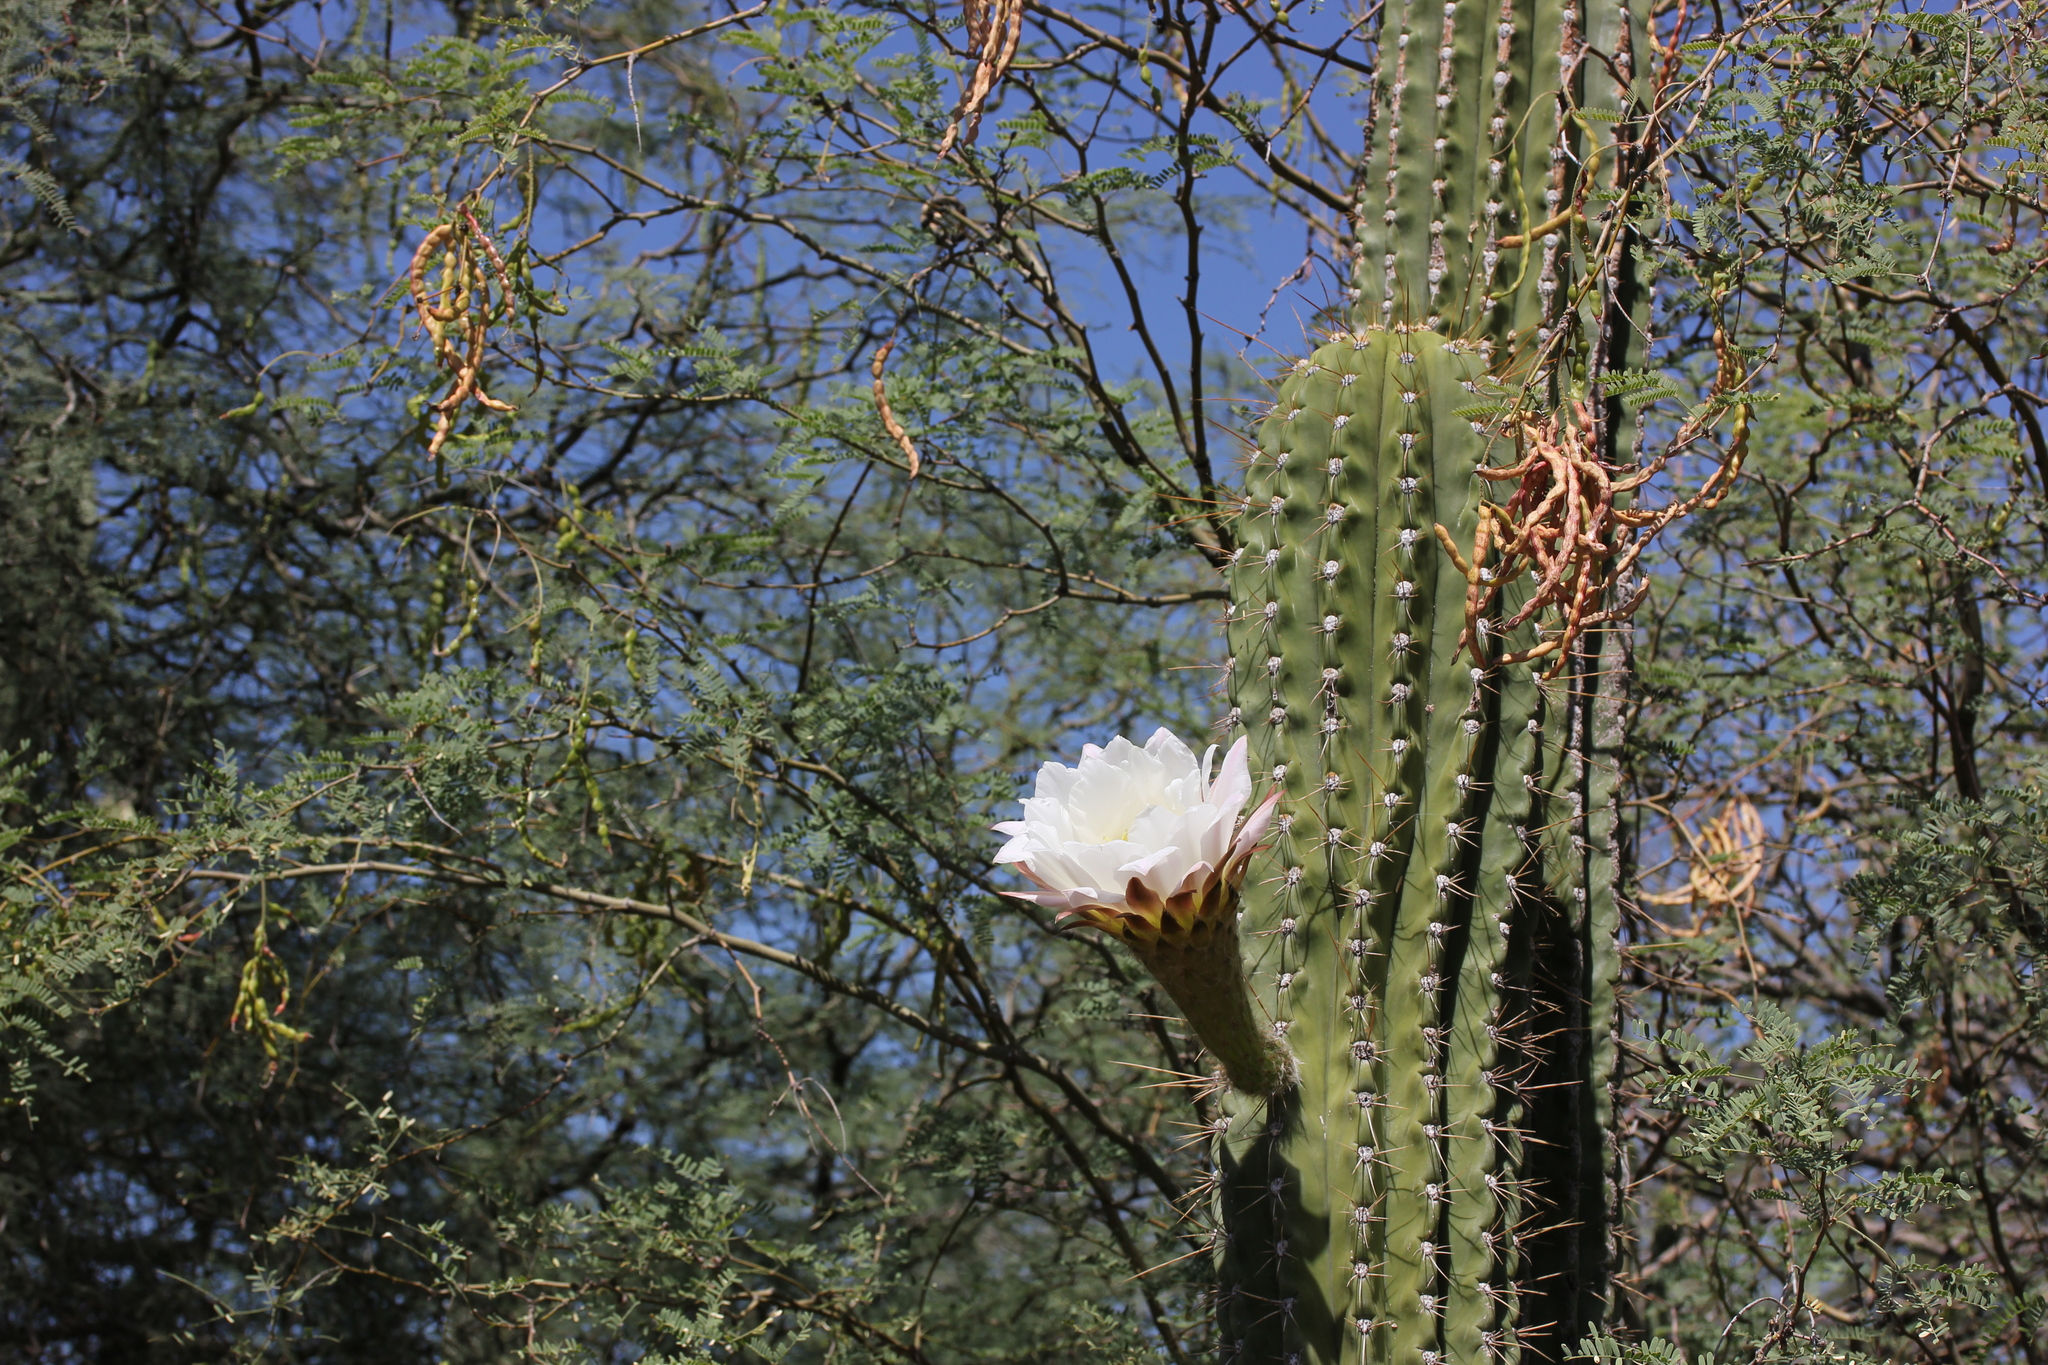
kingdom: Plantae
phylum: Tracheophyta
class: Magnoliopsida
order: Fabales
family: Fabaceae
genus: Prosopis
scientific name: Prosopis velutina
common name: Velvet mesquite
